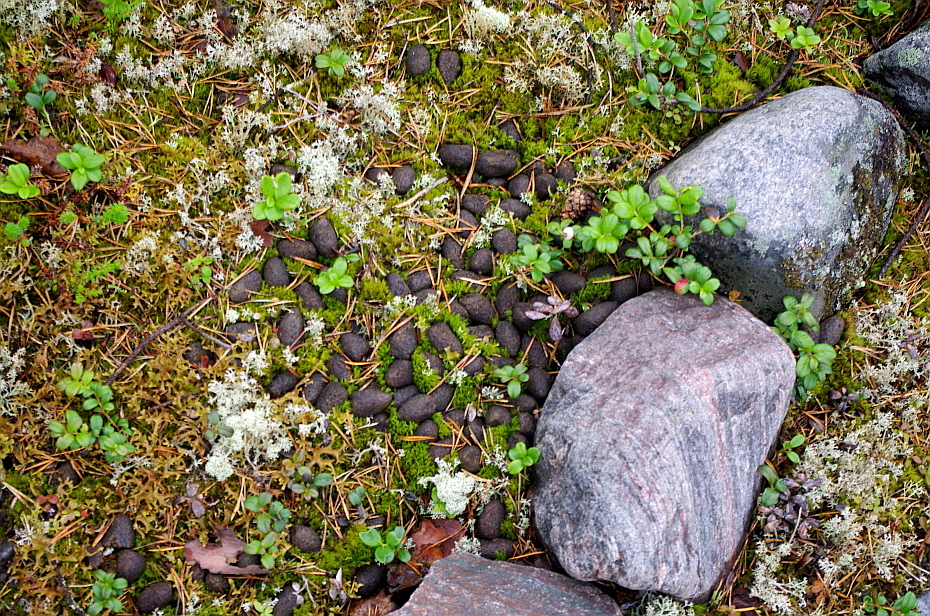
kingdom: Animalia
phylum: Chordata
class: Mammalia
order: Artiodactyla
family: Cervidae
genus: Alces
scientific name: Alces alces
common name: Moose
